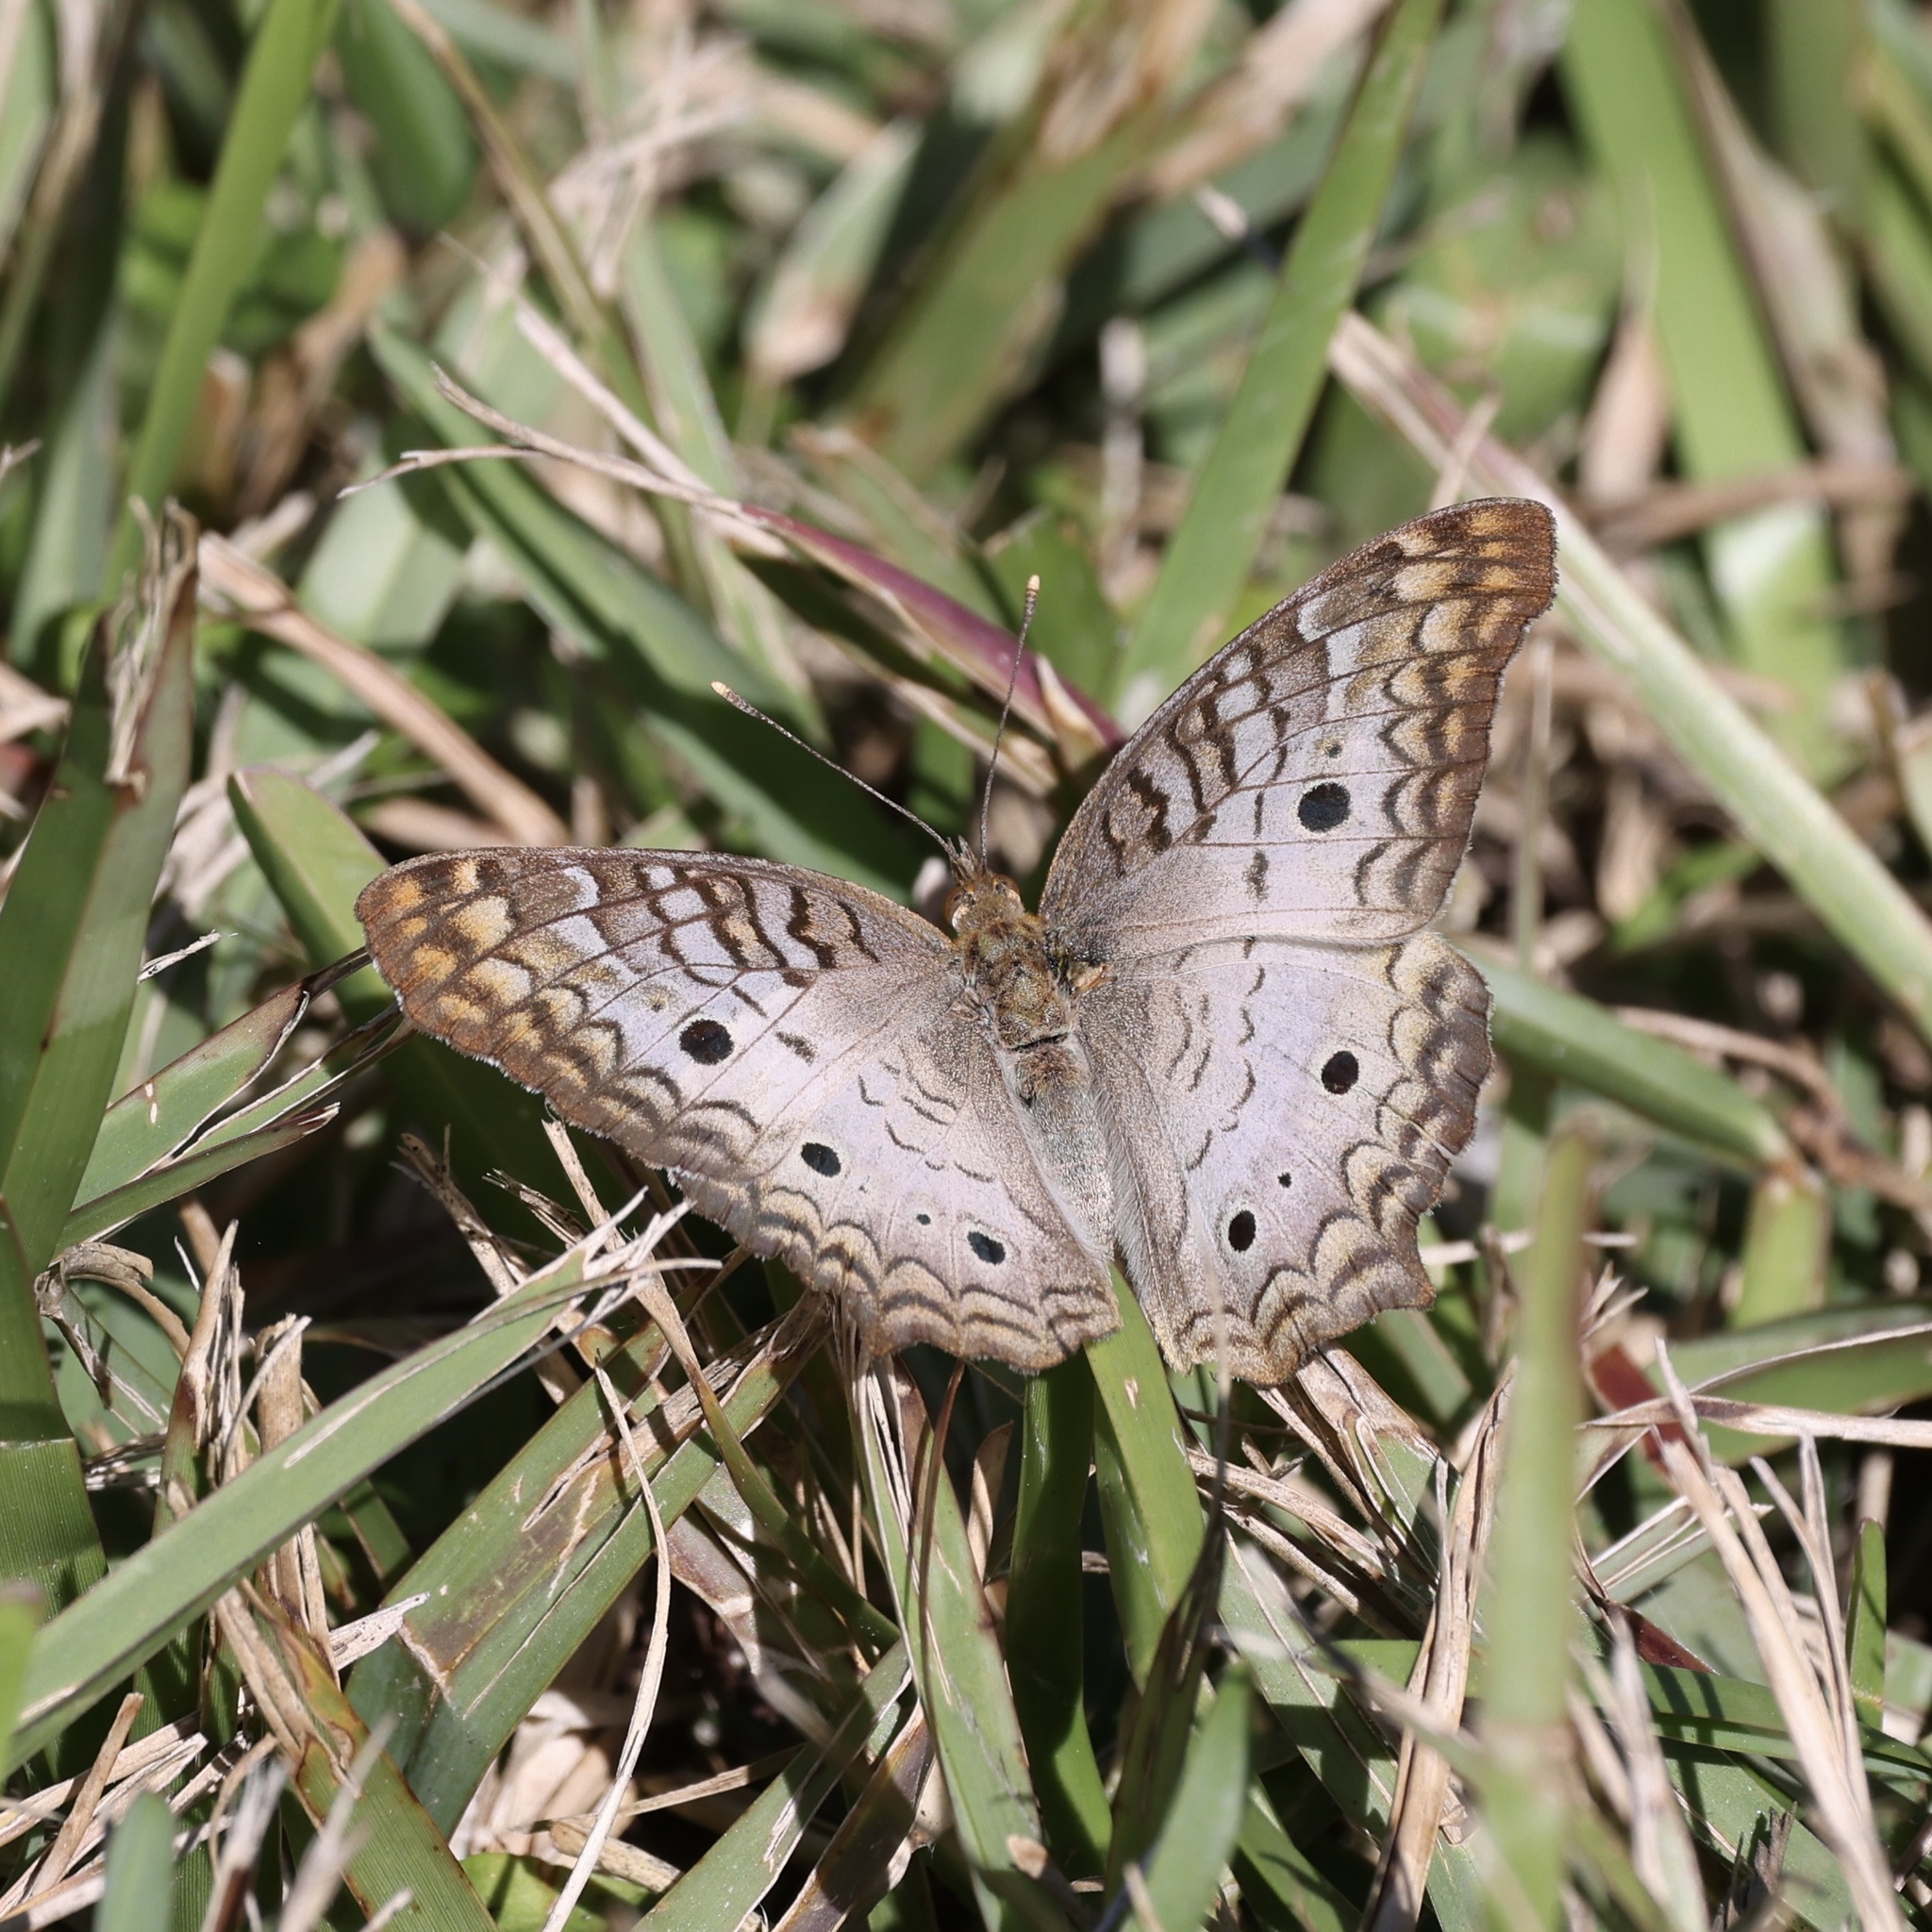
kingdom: Animalia
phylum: Arthropoda
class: Insecta
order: Lepidoptera
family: Nymphalidae
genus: Anartia
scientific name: Anartia jatrophae
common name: White peacock
